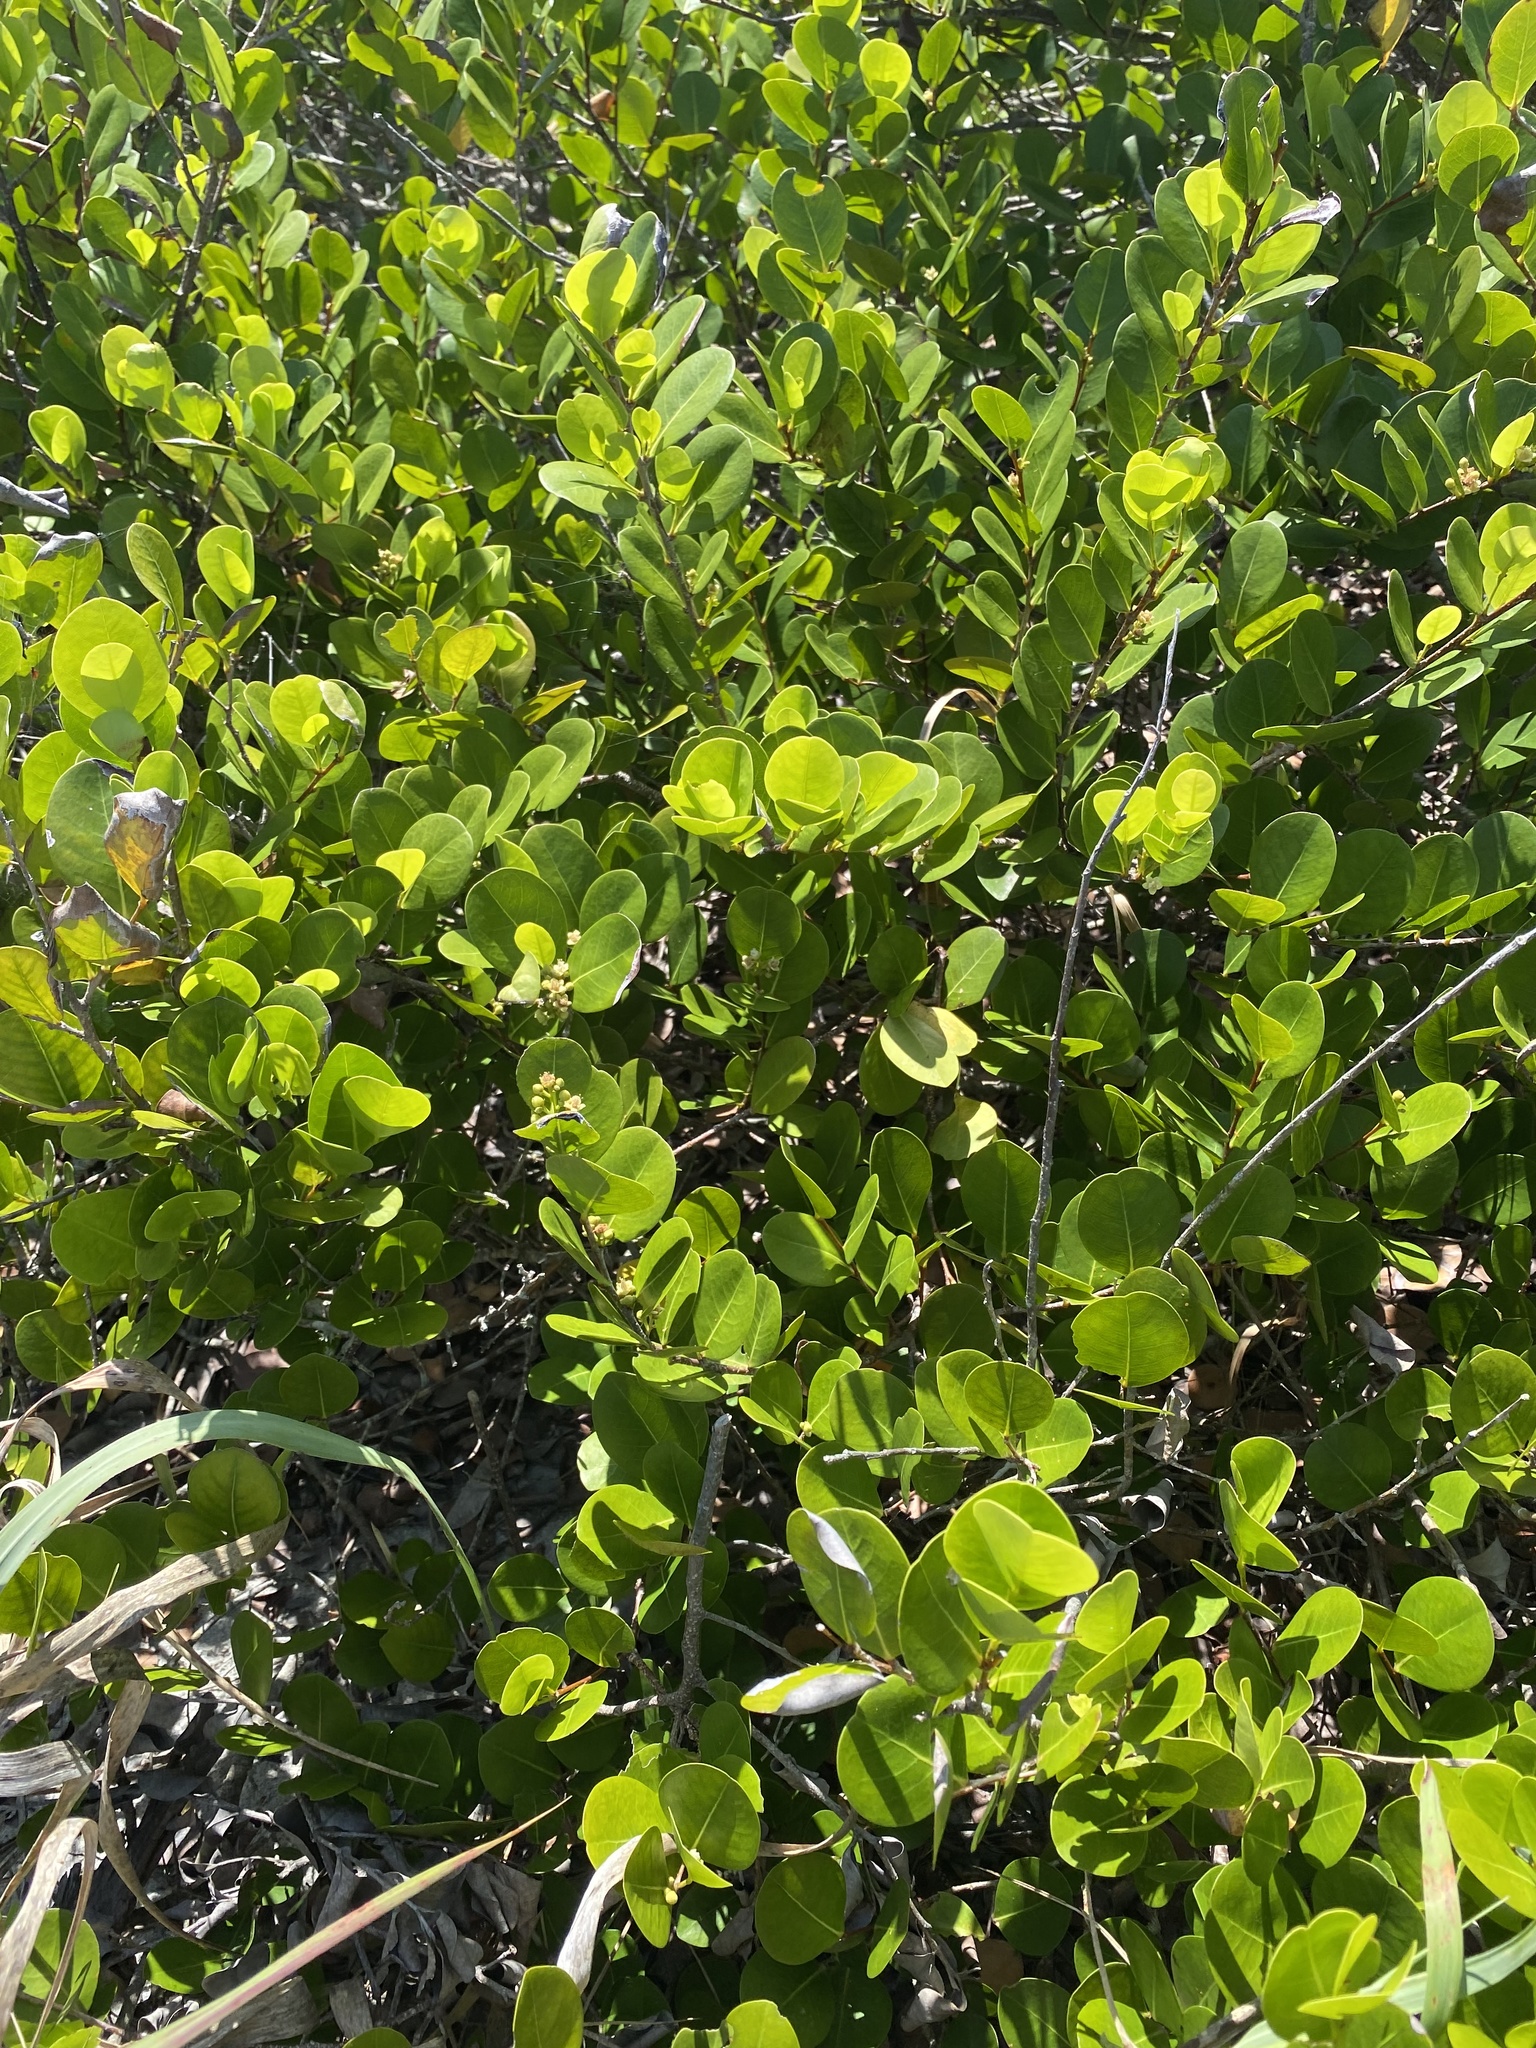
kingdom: Plantae
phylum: Tracheophyta
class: Magnoliopsida
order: Malpighiales
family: Chrysobalanaceae
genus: Chrysobalanus
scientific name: Chrysobalanus icaco
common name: Coco plum
